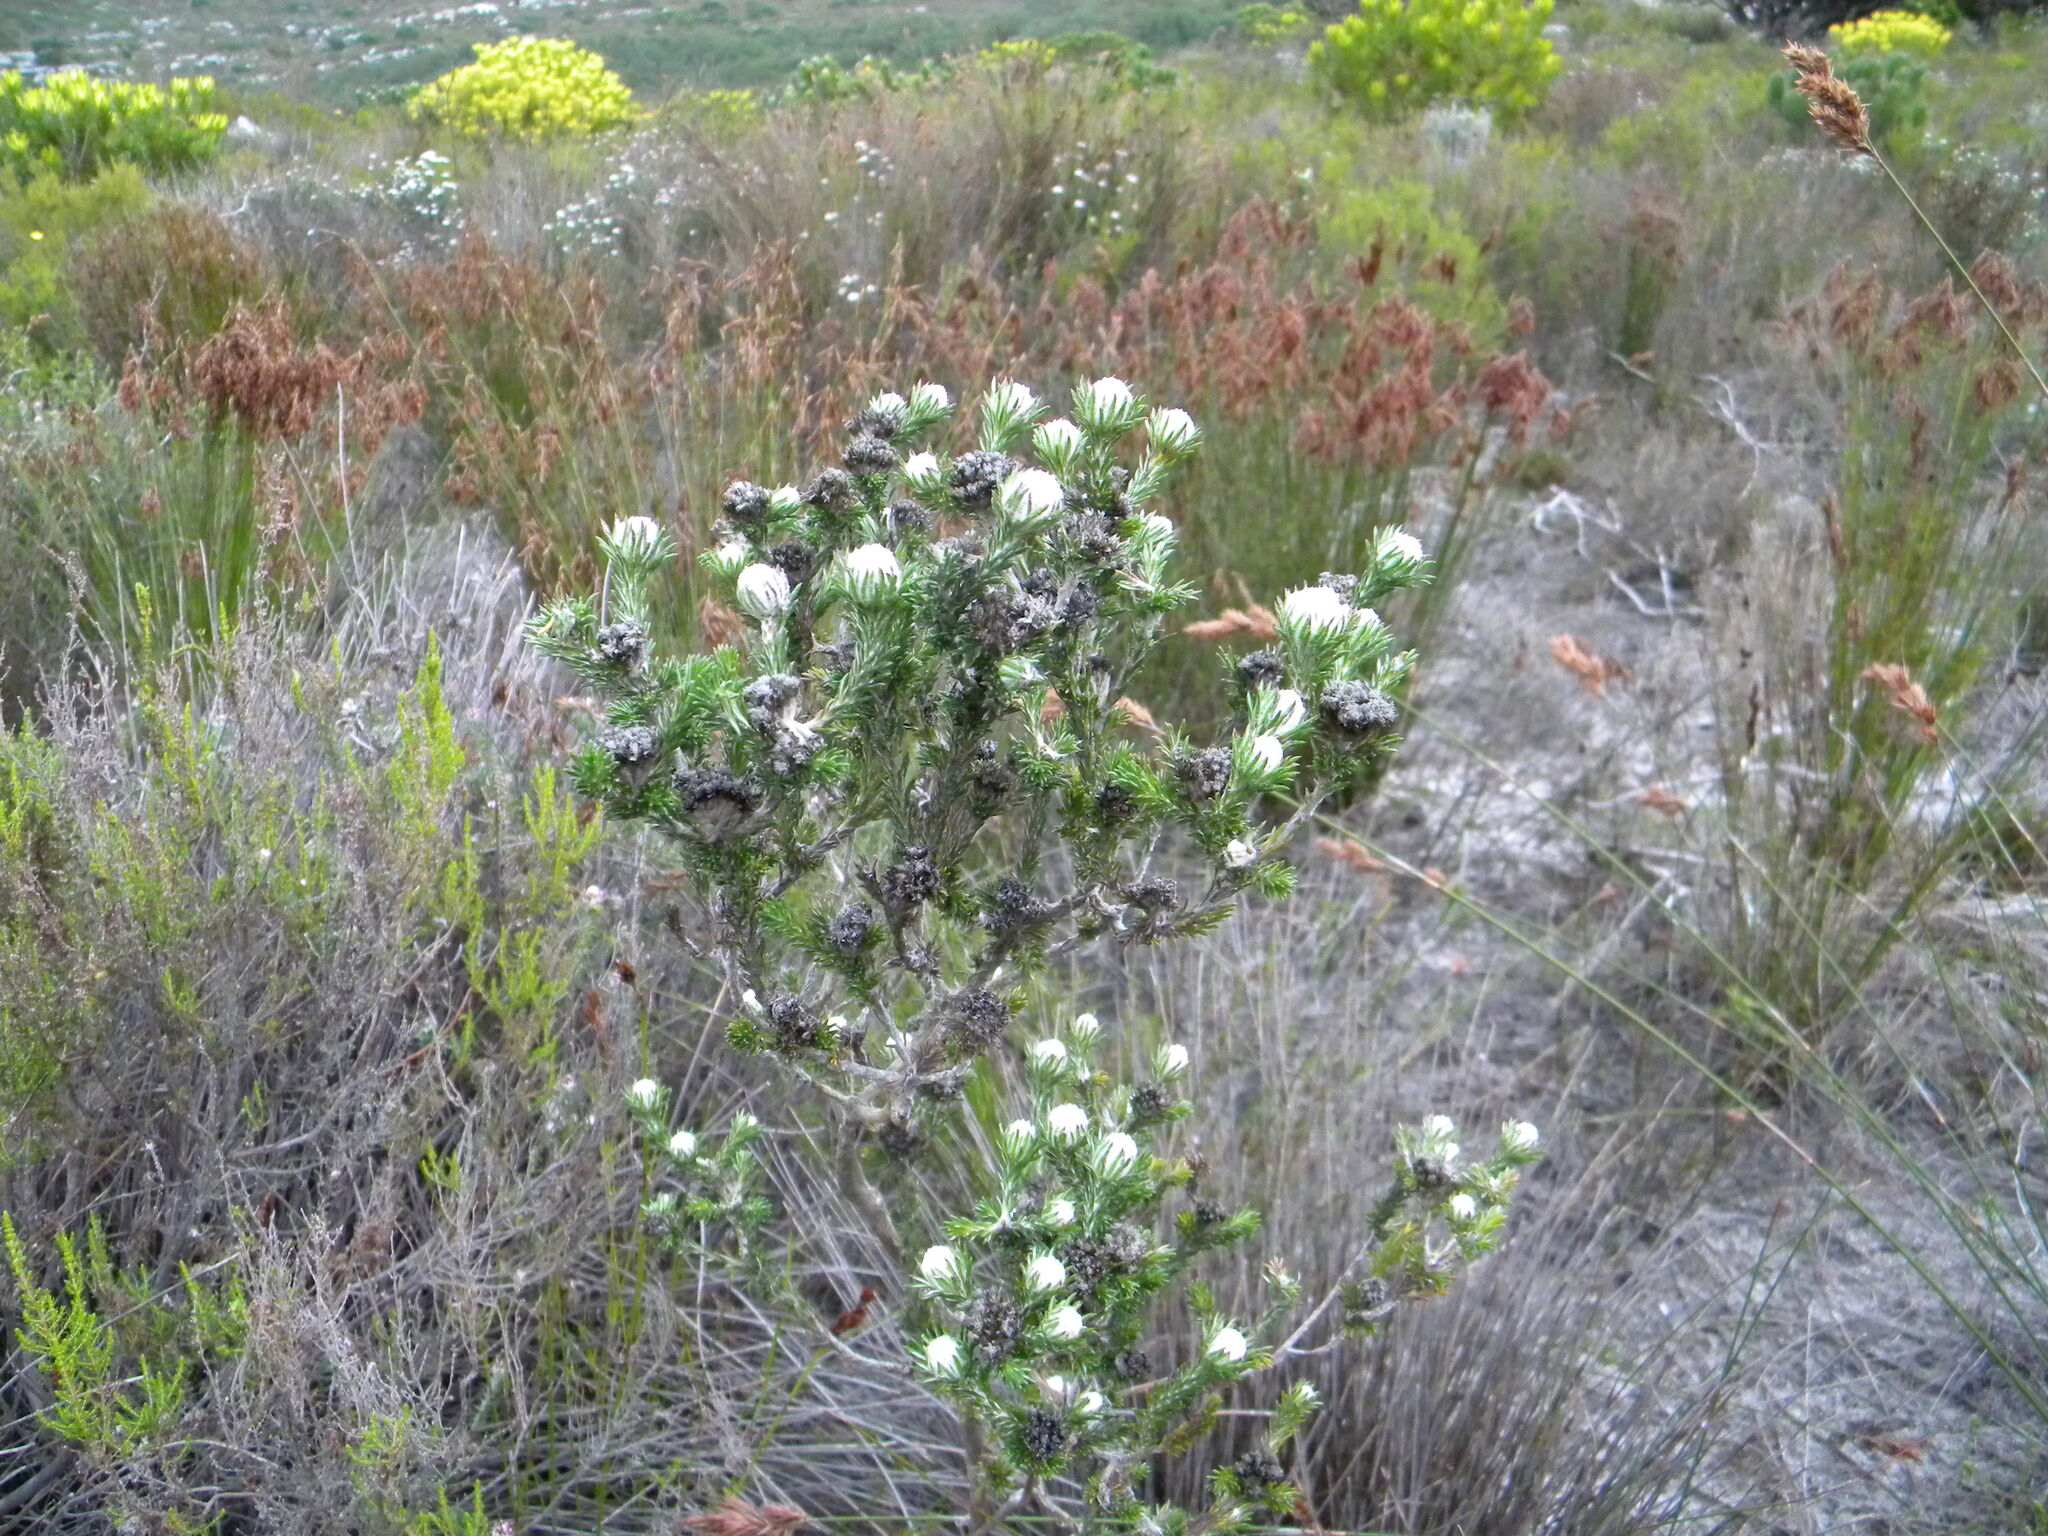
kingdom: Plantae
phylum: Tracheophyta
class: Magnoliopsida
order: Asterales
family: Asteraceae
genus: Metalasia
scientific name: Metalasia compacta
